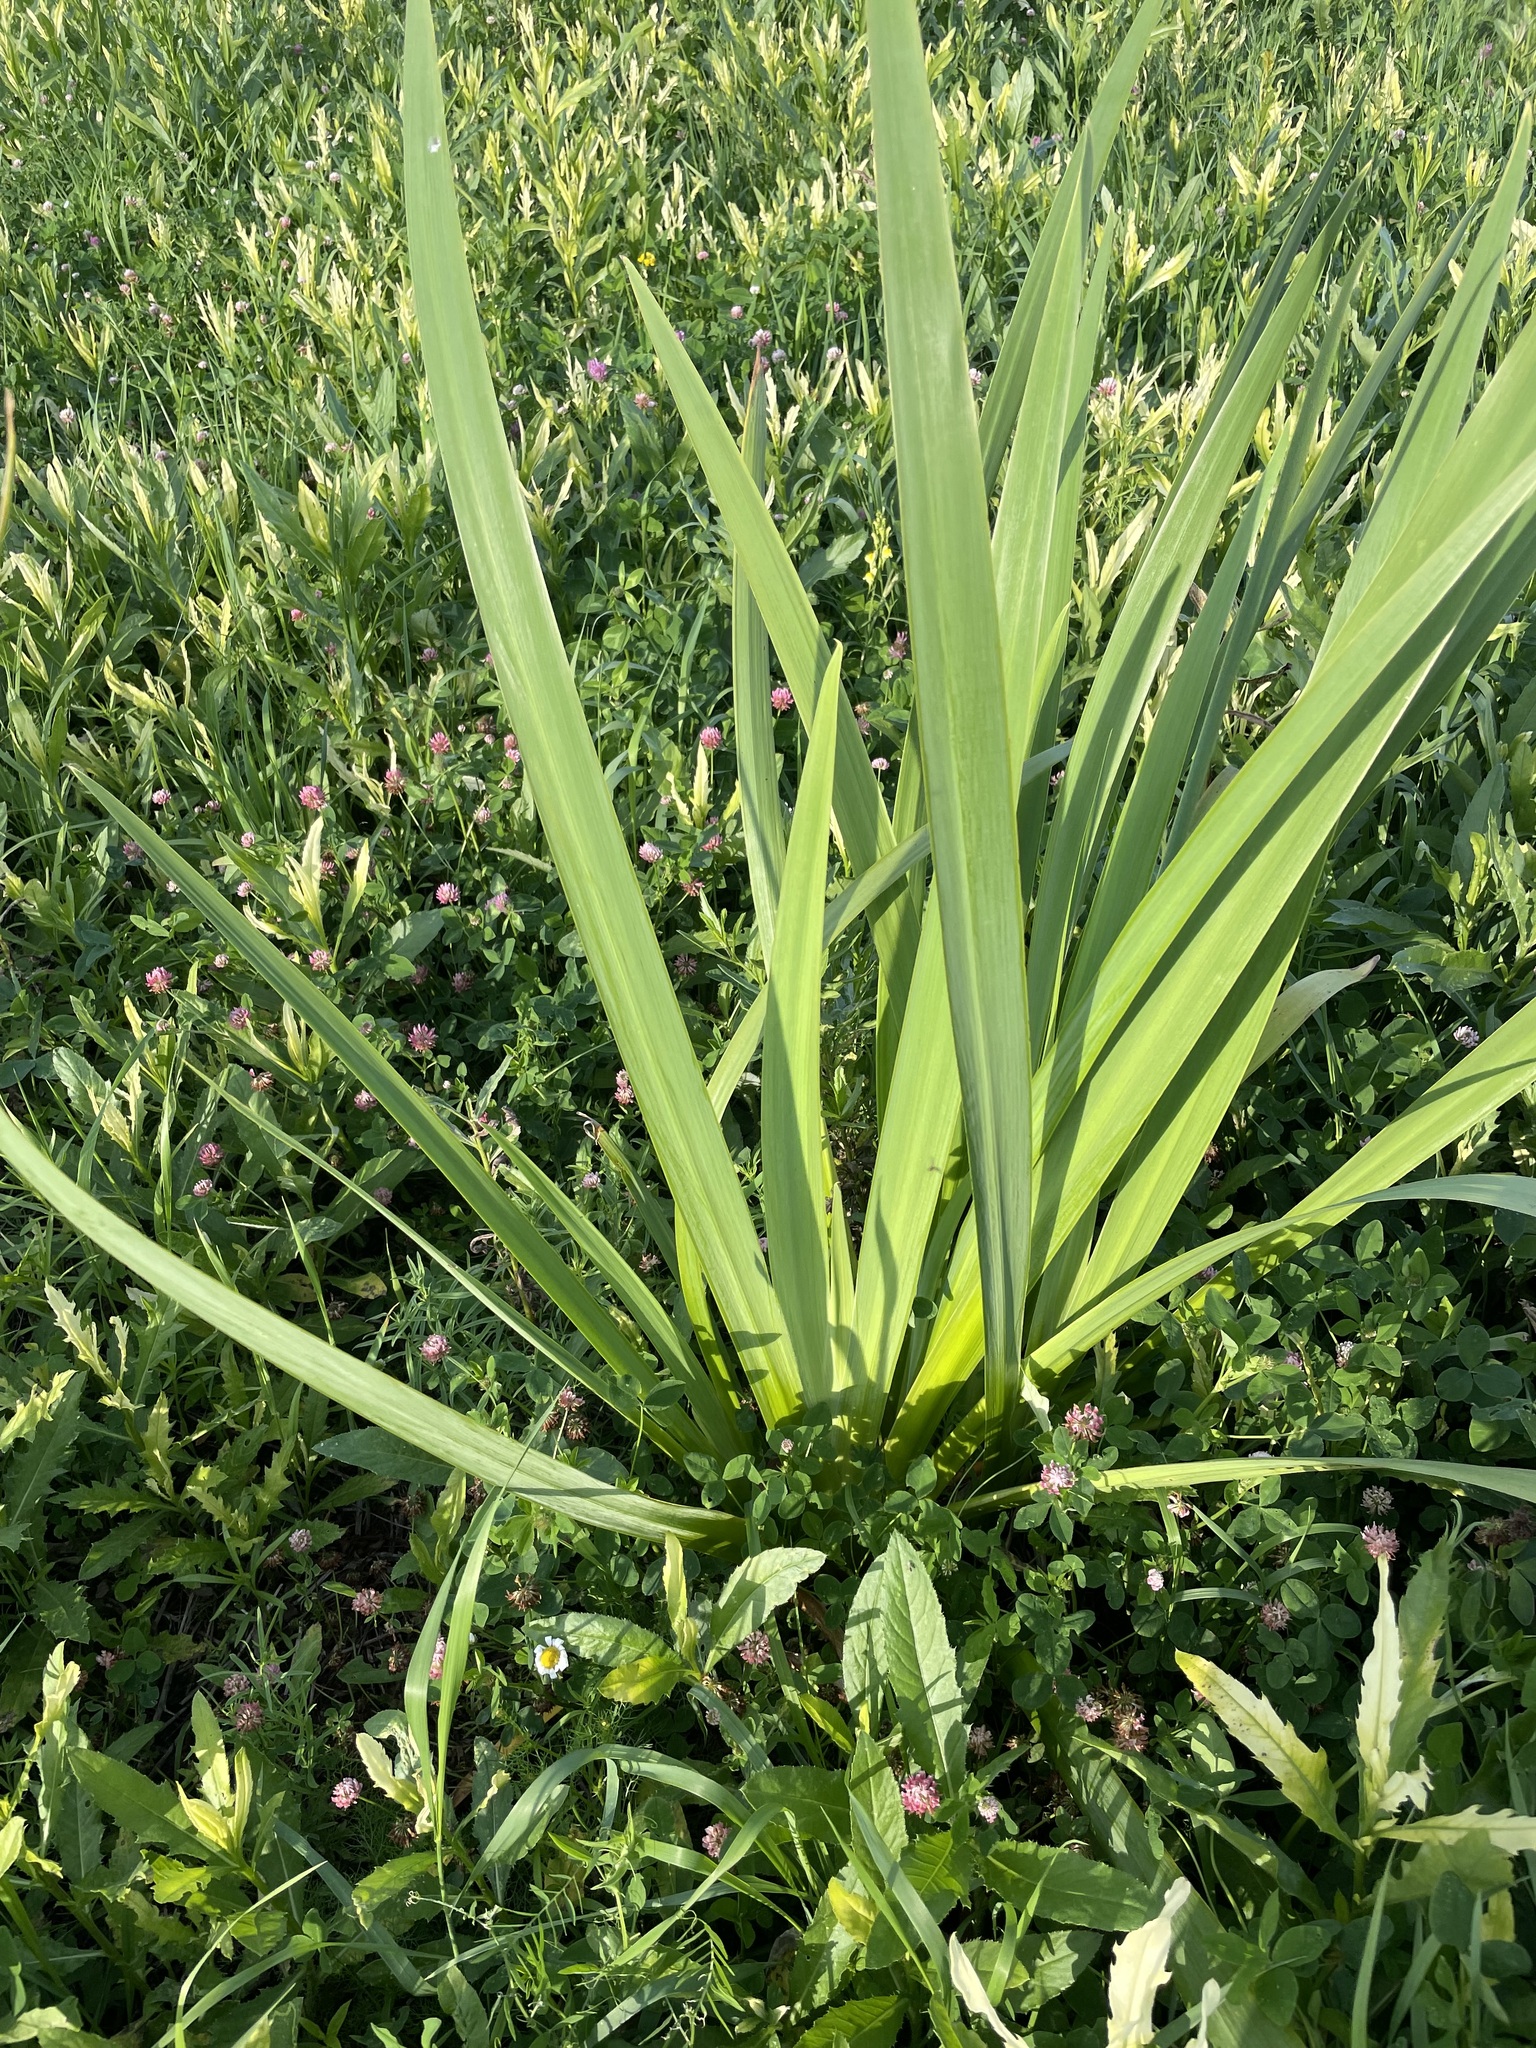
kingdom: Plantae
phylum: Tracheophyta
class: Liliopsida
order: Asparagales
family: Iridaceae
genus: Iris
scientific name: Iris pseudacorus
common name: Yellow flag
